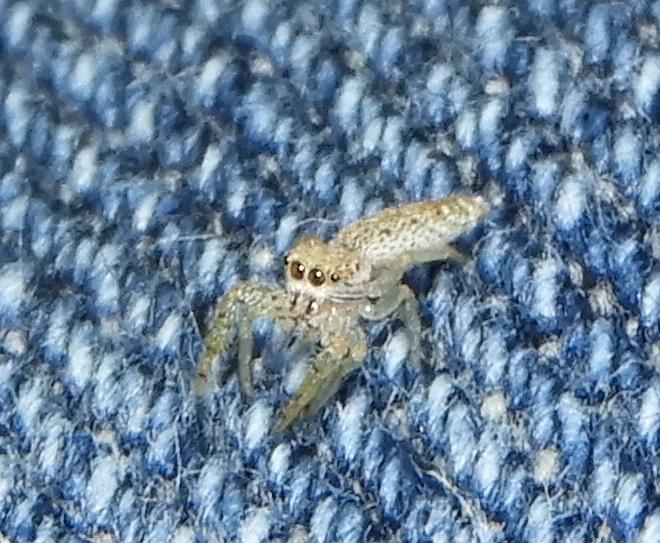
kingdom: Animalia
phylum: Arthropoda
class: Arachnida
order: Araneae
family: Salticidae
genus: Hentzia
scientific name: Hentzia
